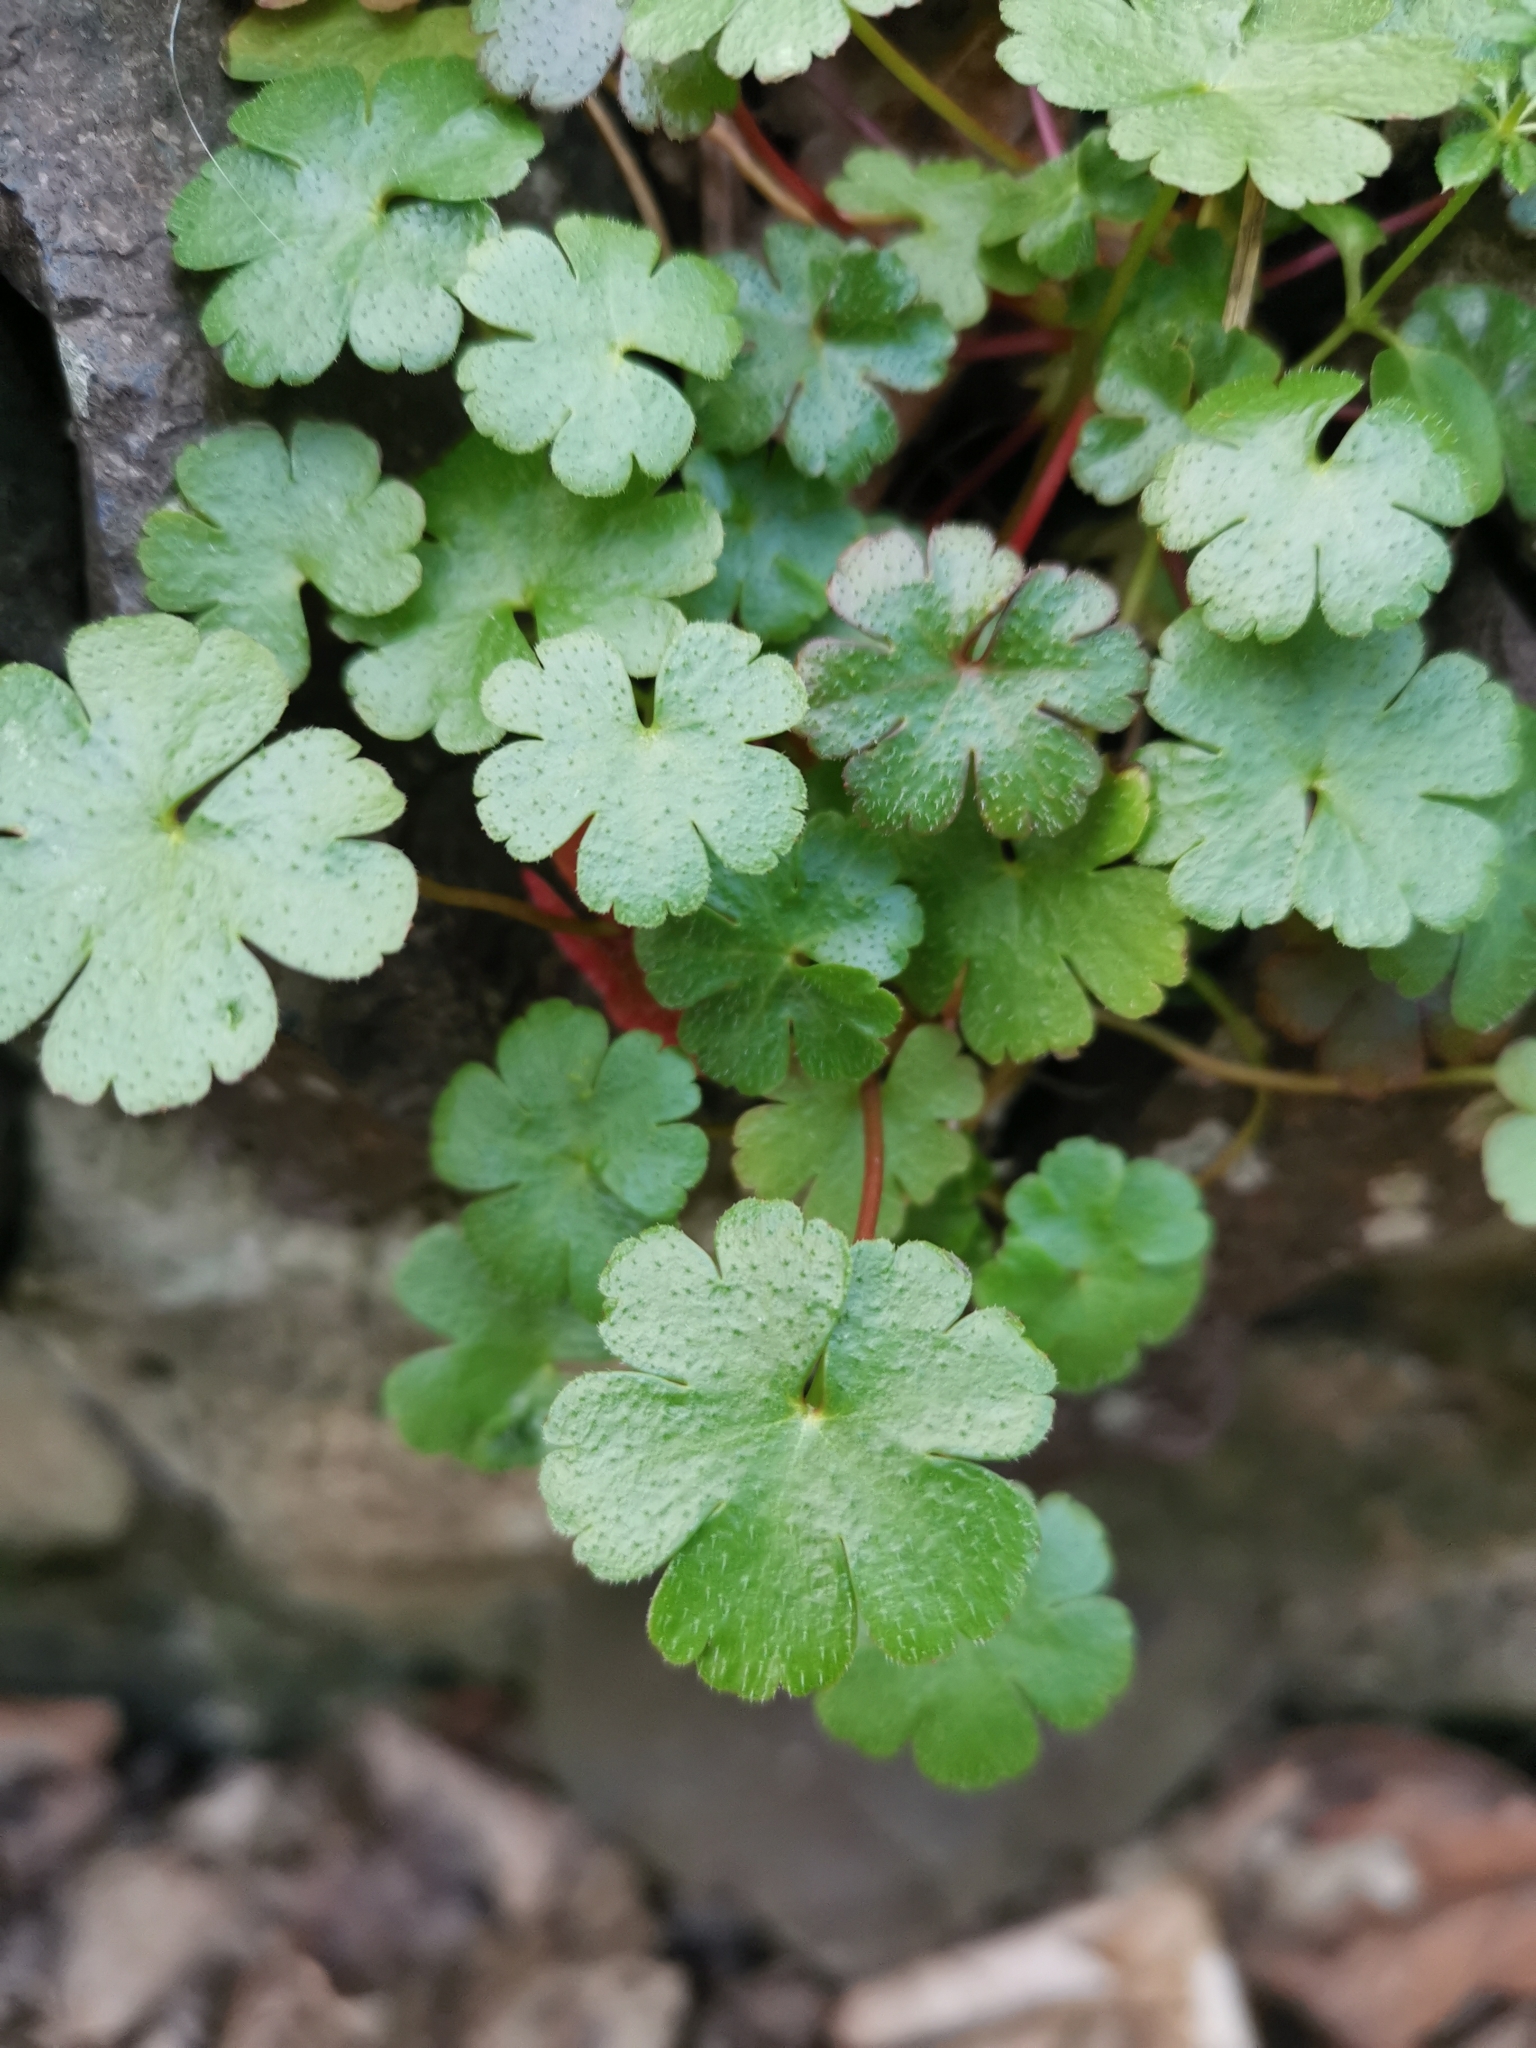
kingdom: Plantae
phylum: Tracheophyta
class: Magnoliopsida
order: Geraniales
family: Geraniaceae
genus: Geranium
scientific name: Geranium lucidum
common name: Shining crane's-bill
